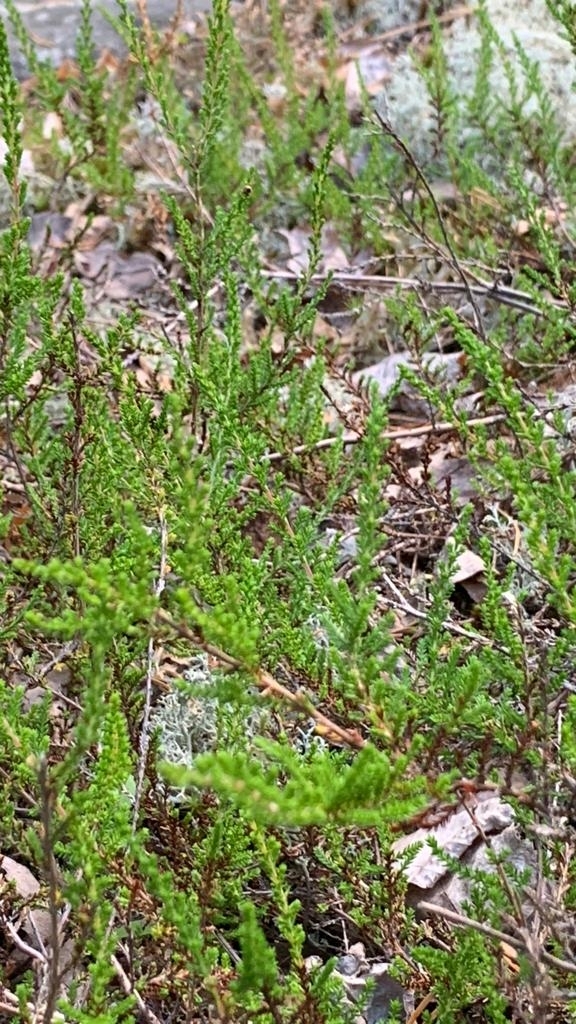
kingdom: Plantae
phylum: Tracheophyta
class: Magnoliopsida
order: Ericales
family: Ericaceae
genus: Calluna
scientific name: Calluna vulgaris
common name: Heather
